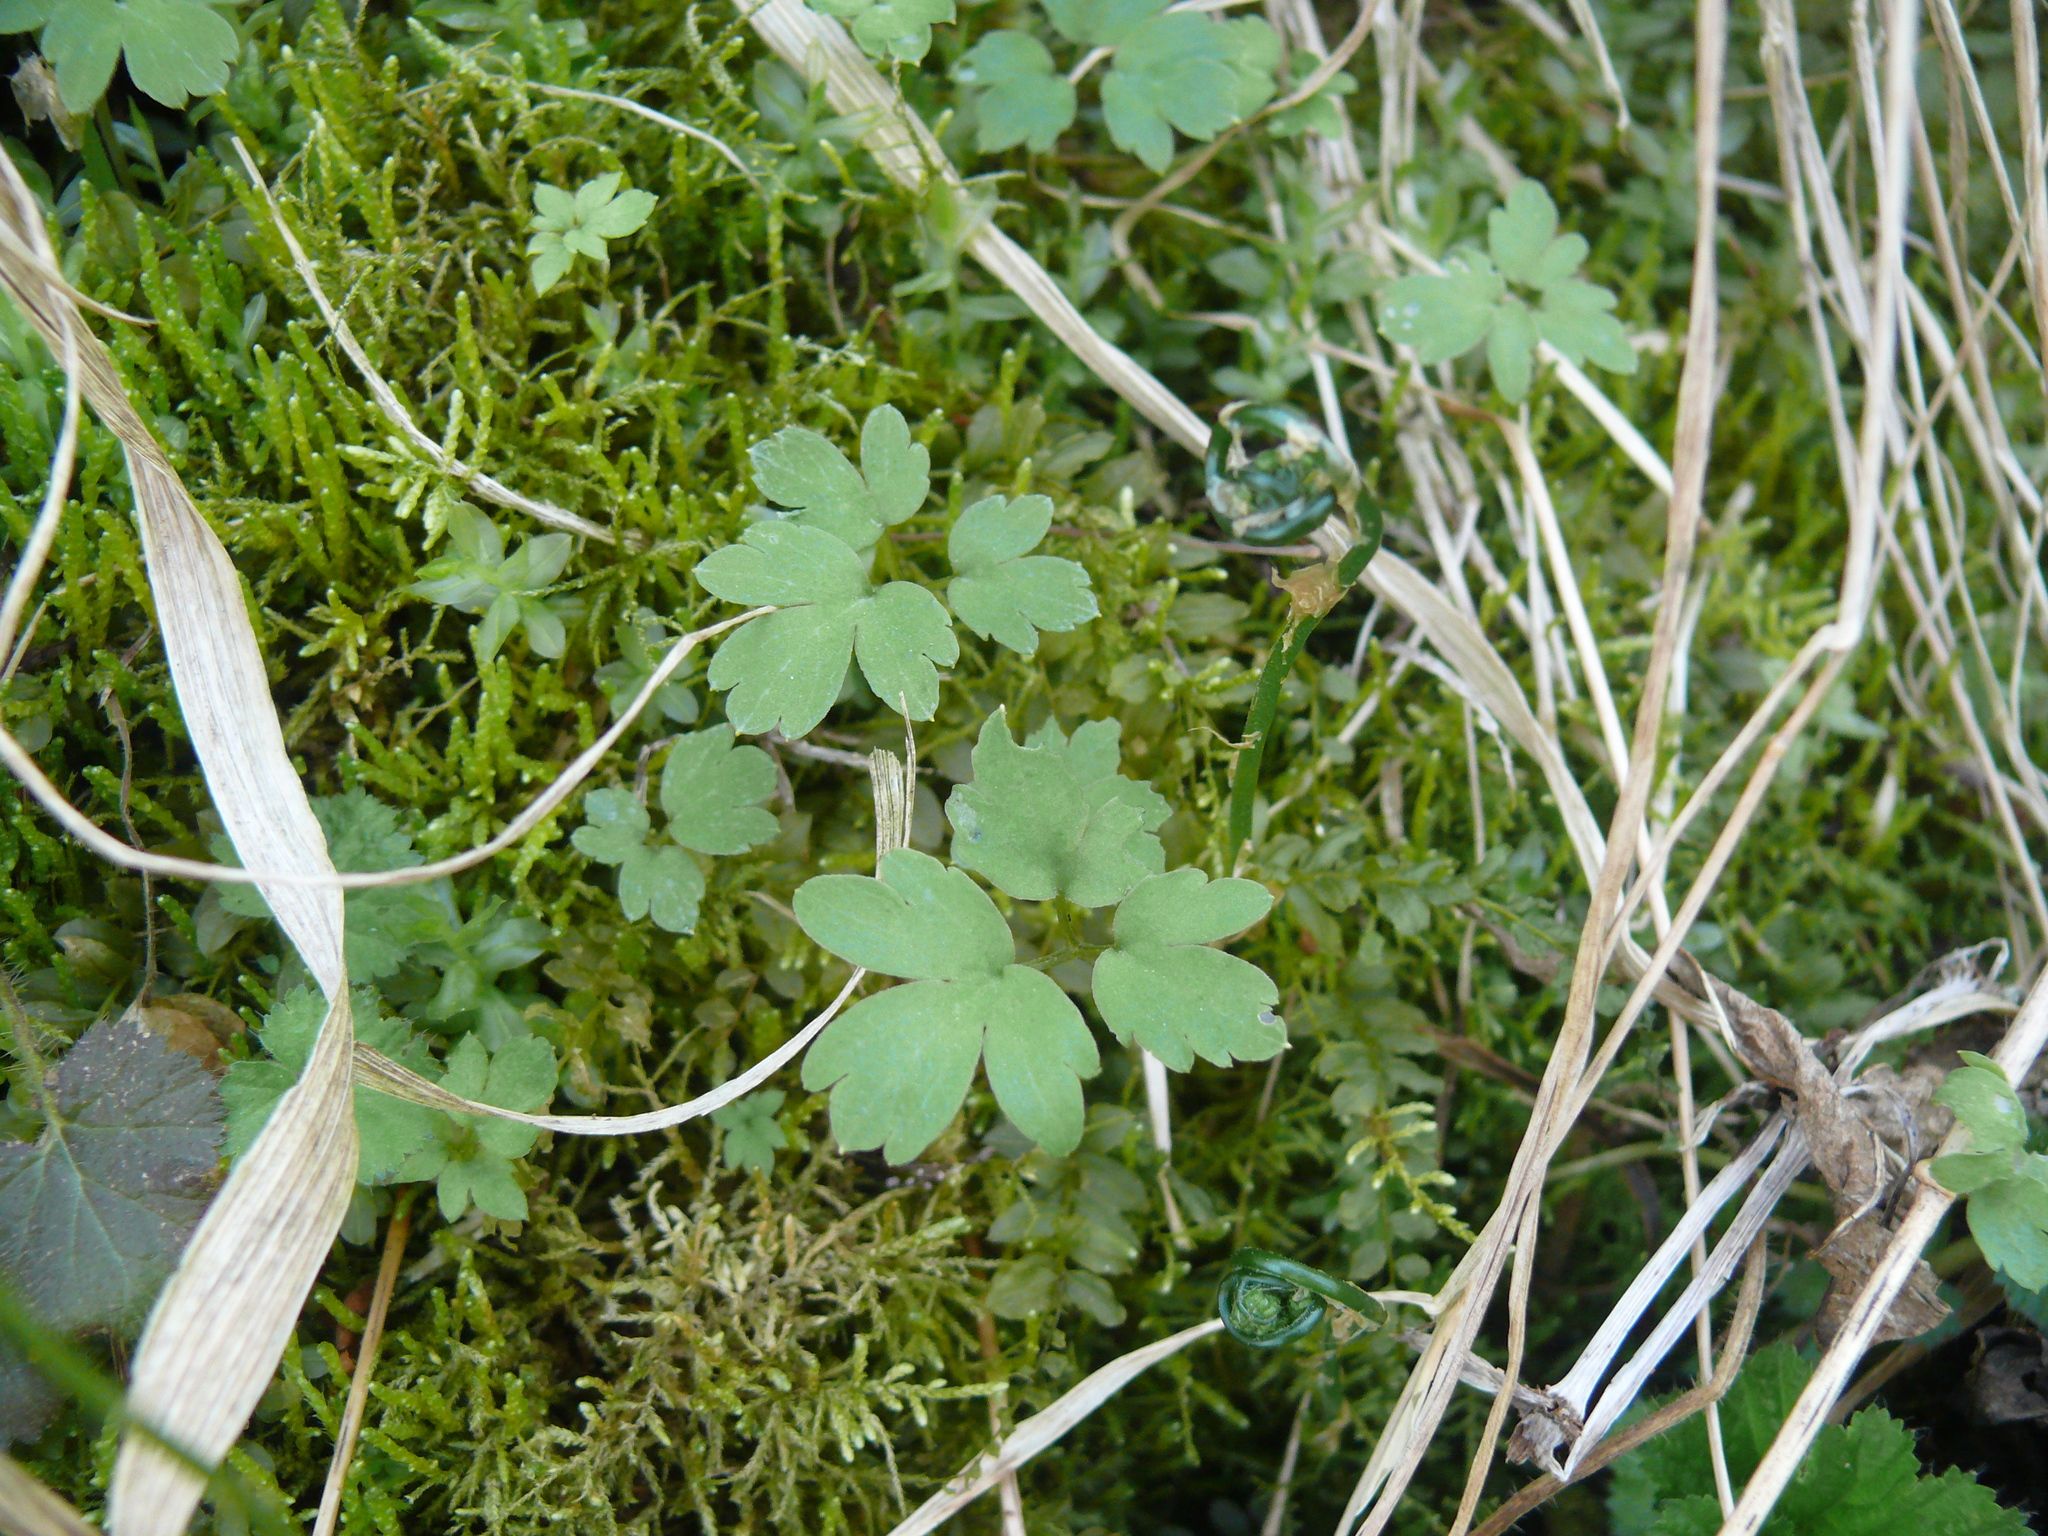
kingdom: Plantae
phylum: Tracheophyta
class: Magnoliopsida
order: Dipsacales
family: Viburnaceae
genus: Adoxa
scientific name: Adoxa moschatellina
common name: Moschatel
